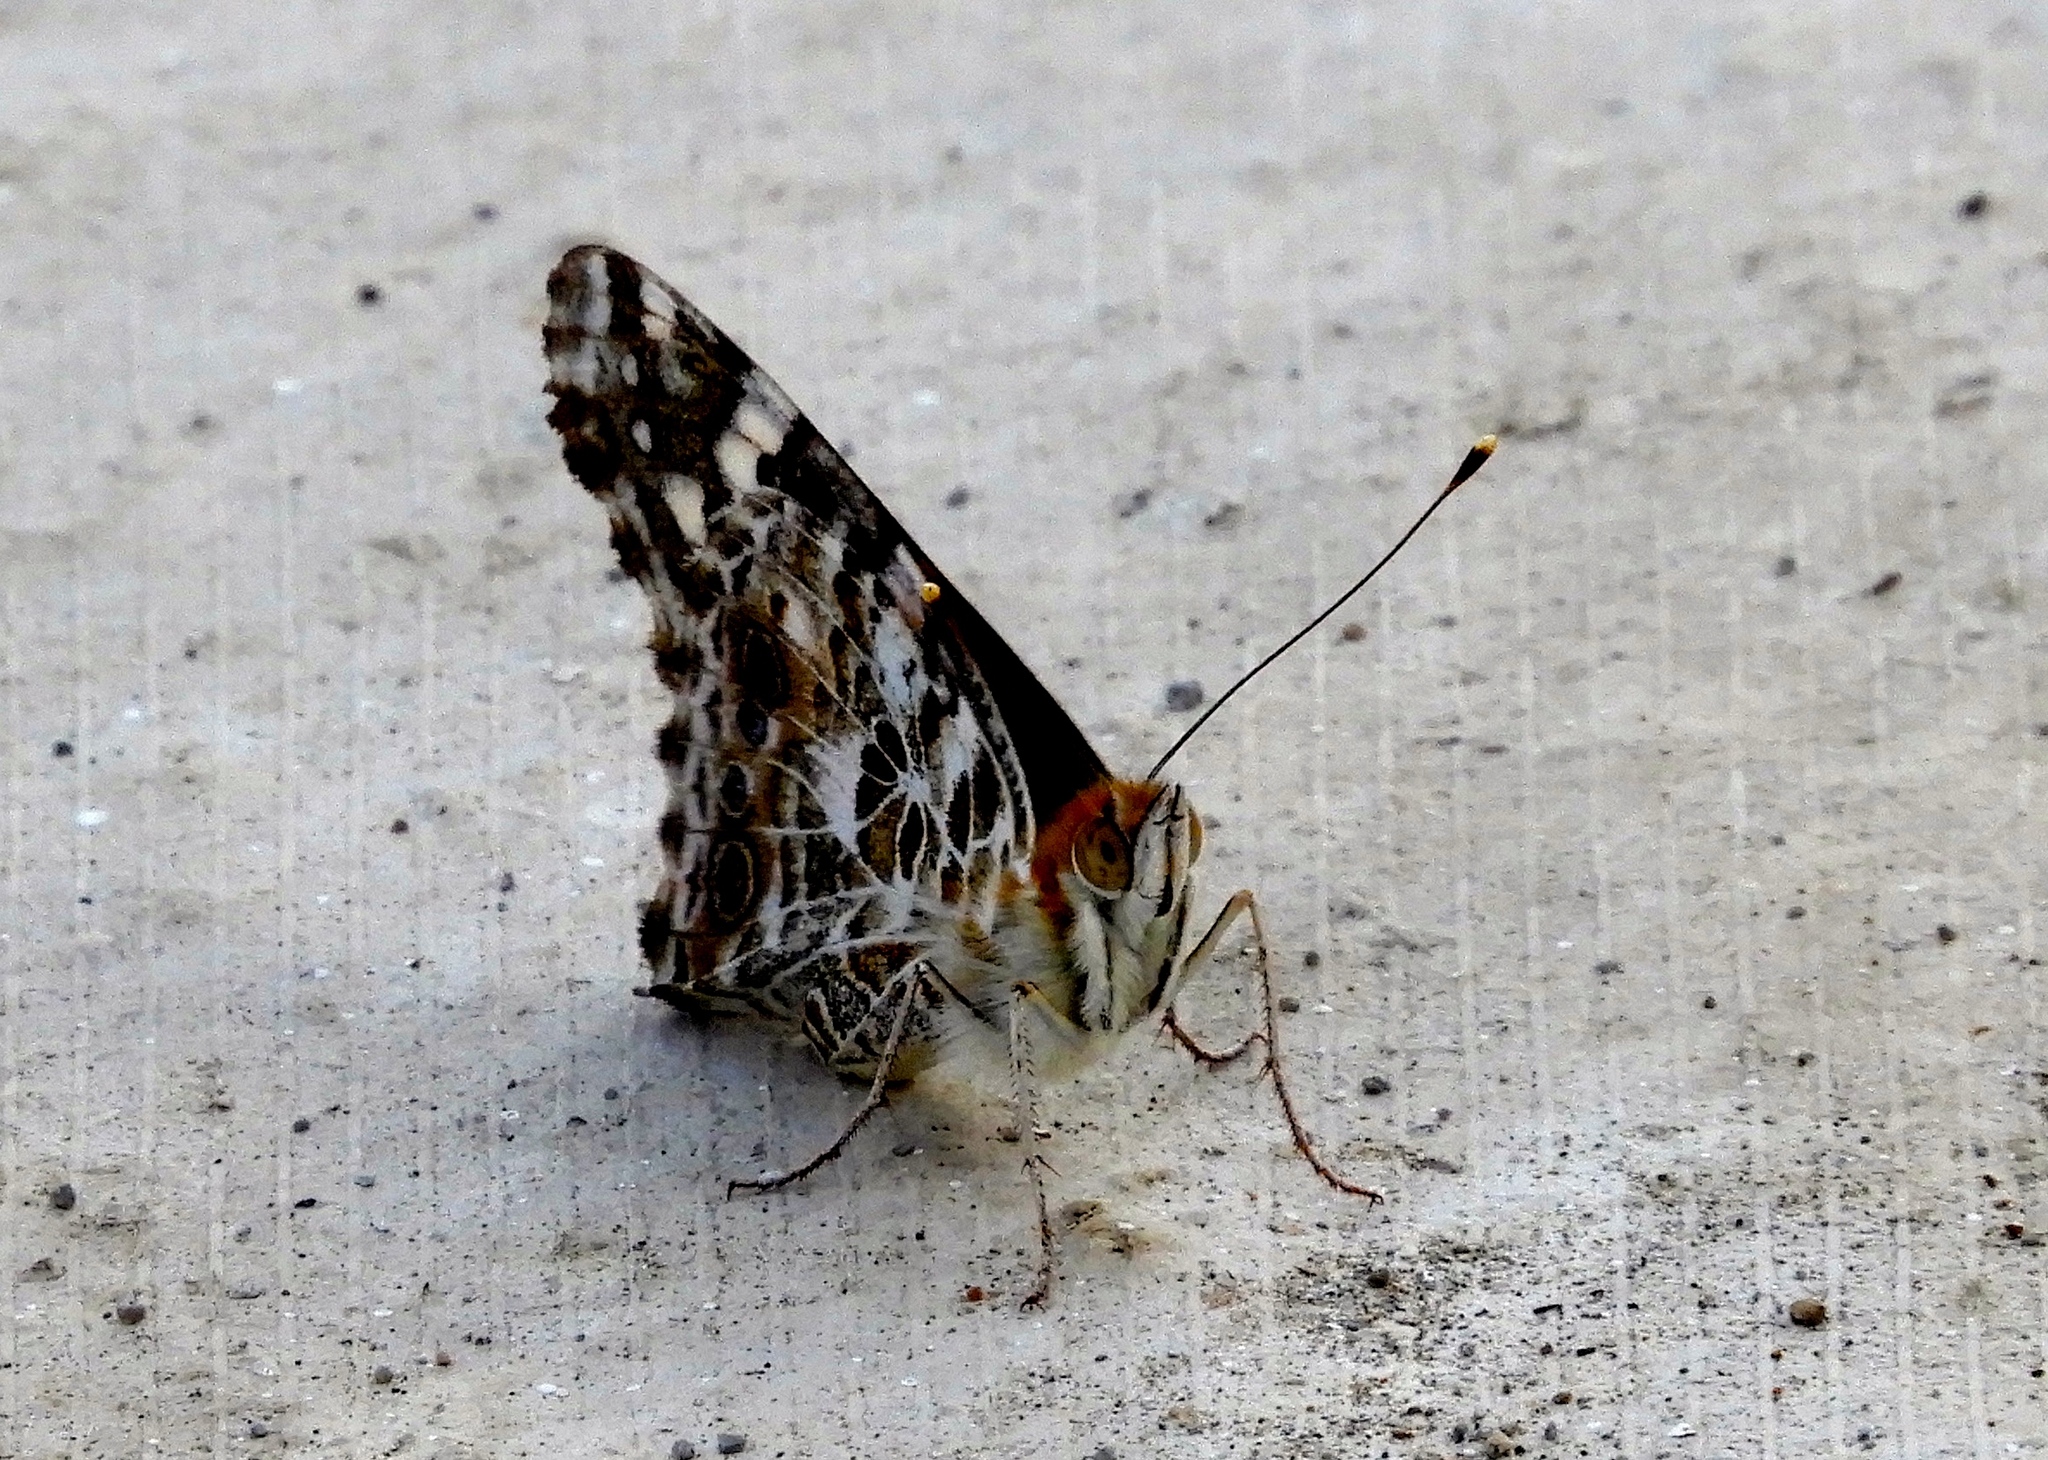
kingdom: Animalia
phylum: Arthropoda
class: Insecta
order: Lepidoptera
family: Nymphalidae
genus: Vanessa
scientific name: Vanessa cardui
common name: Painted lady
